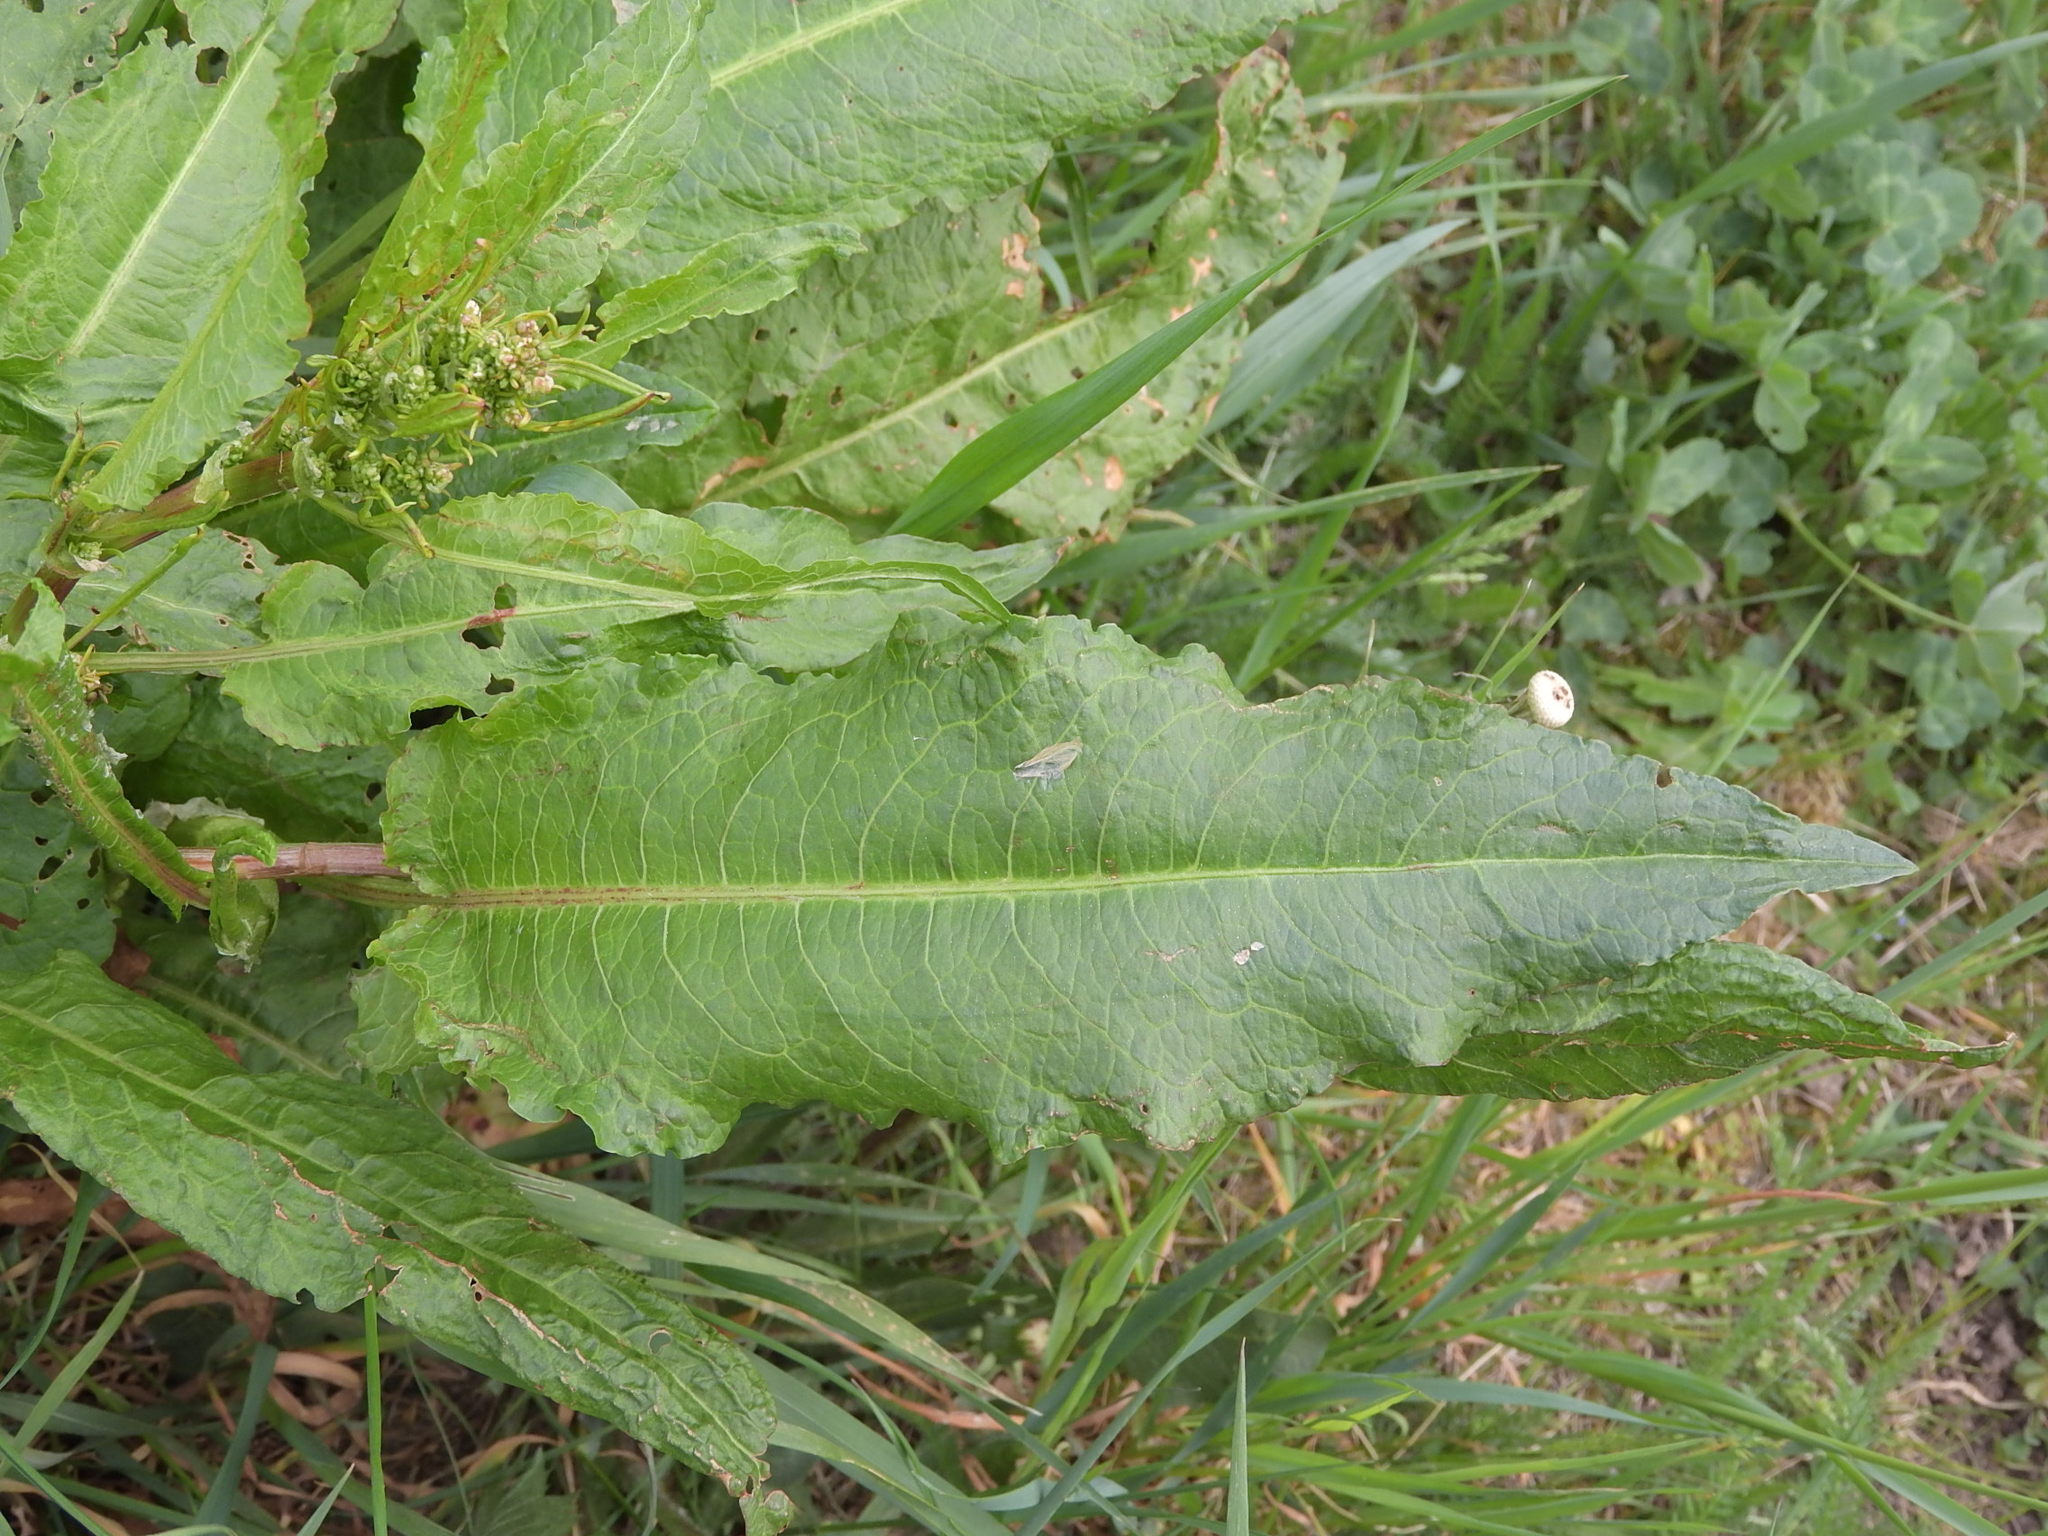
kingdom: Plantae
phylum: Tracheophyta
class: Magnoliopsida
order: Caryophyllales
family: Polygonaceae
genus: Rumex
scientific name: Rumex obtusifolius
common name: Bitter dock
